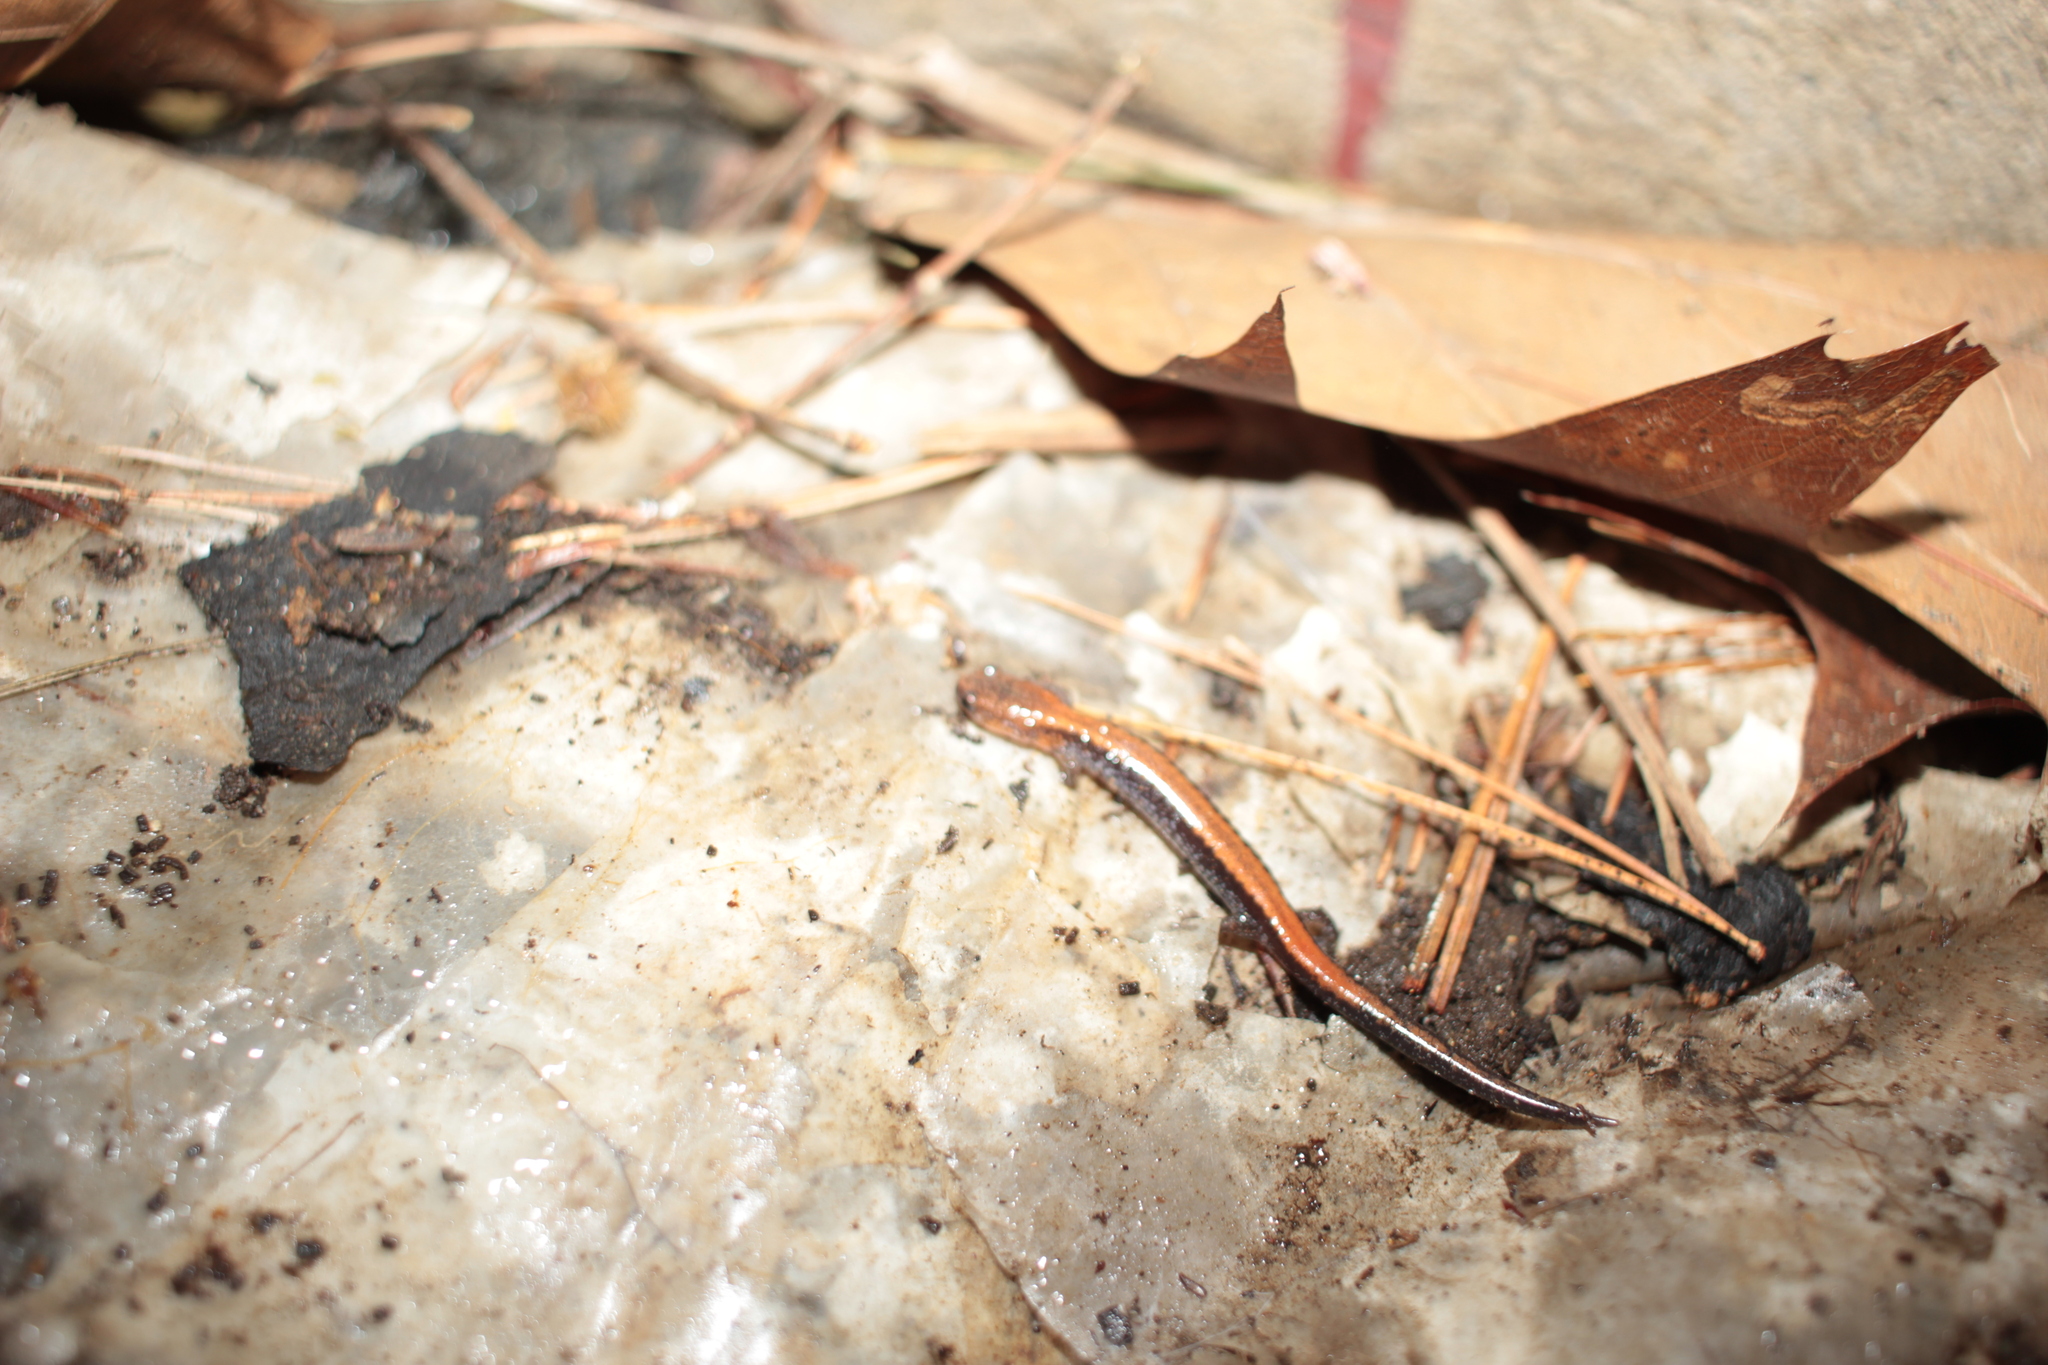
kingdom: Animalia
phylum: Chordata
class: Amphibia
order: Caudata
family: Plethodontidae
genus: Plethodon
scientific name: Plethodon cinereus
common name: Redback salamander
